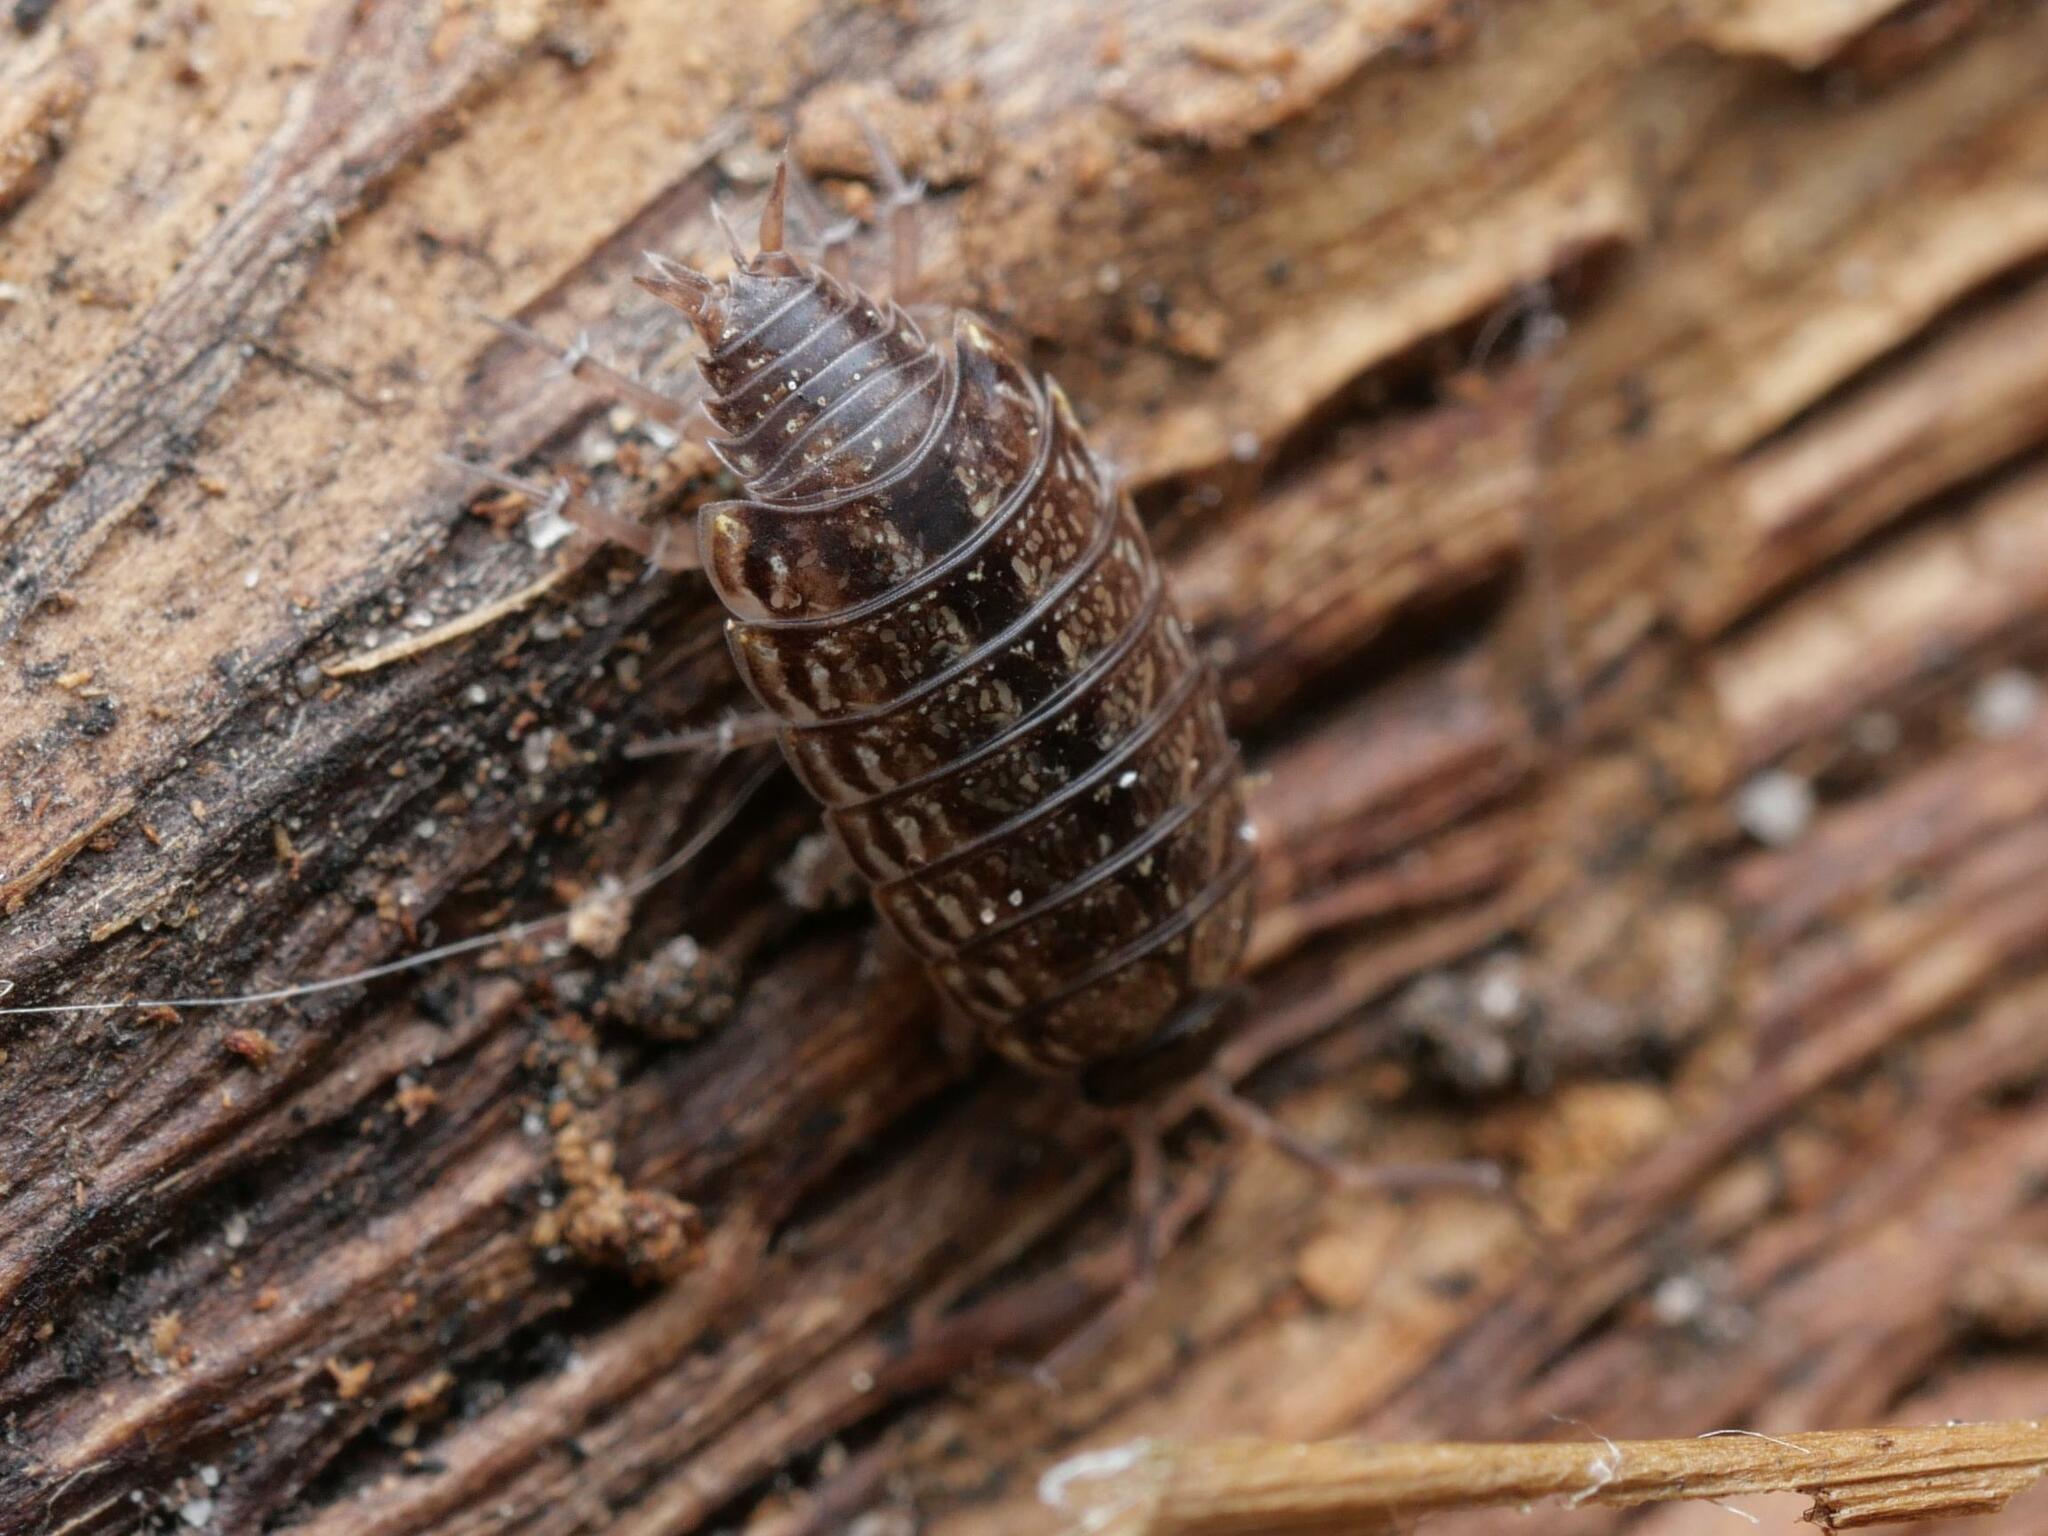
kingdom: Animalia
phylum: Arthropoda
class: Malacostraca
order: Isopoda
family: Philosciidae
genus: Philoscia
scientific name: Philoscia muscorum
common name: Common striped woodlouse
